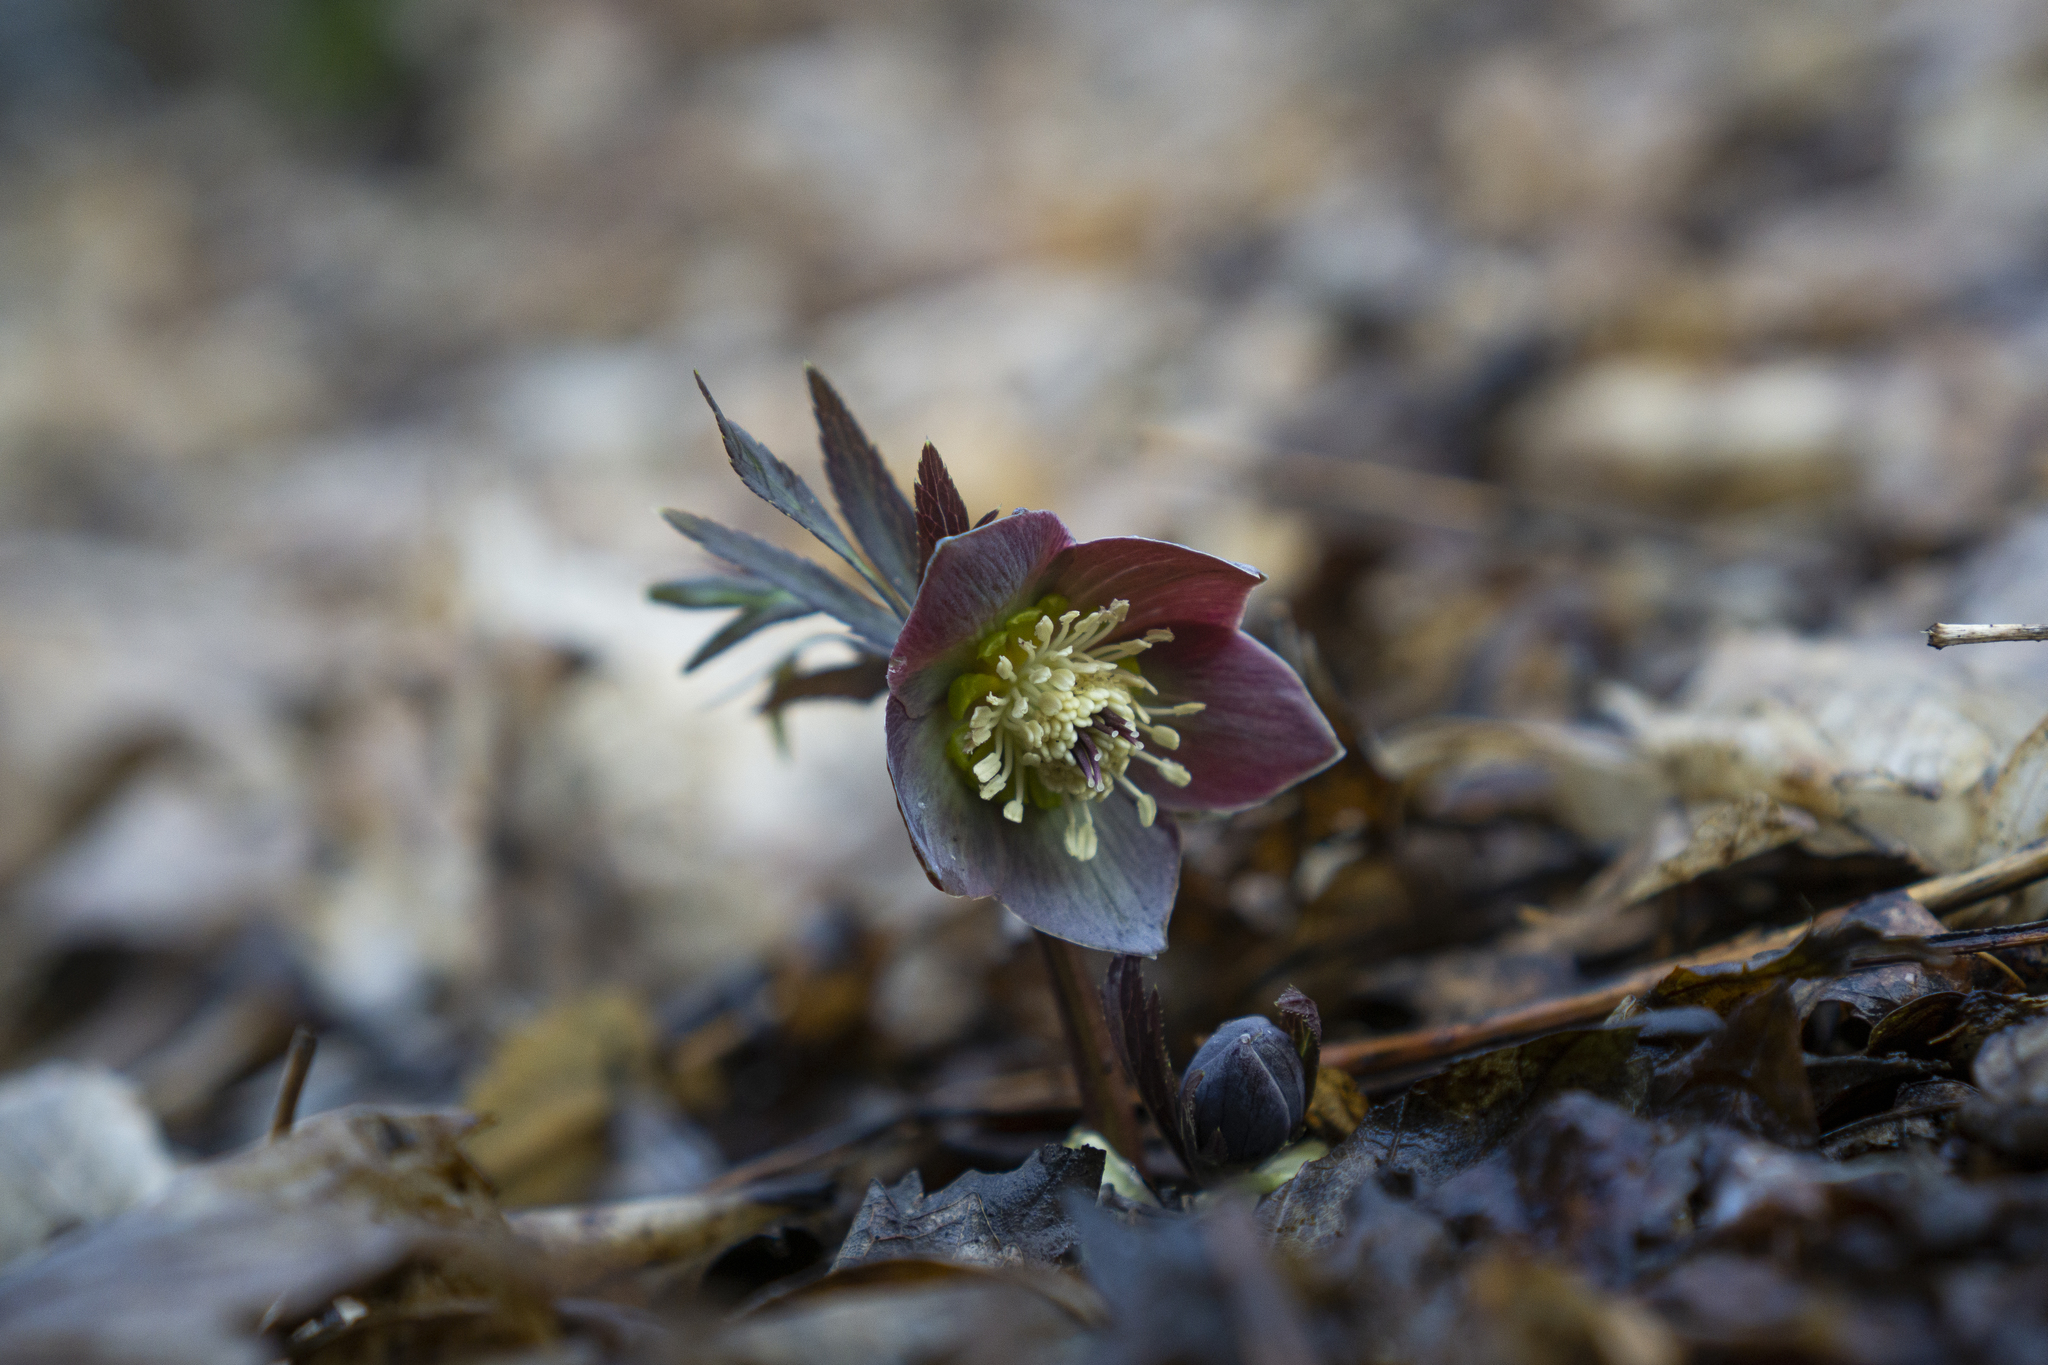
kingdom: Plantae
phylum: Tracheophyta
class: Magnoliopsida
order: Ranunculales
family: Ranunculaceae
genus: Helleborus
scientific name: Helleborus purpurascens
